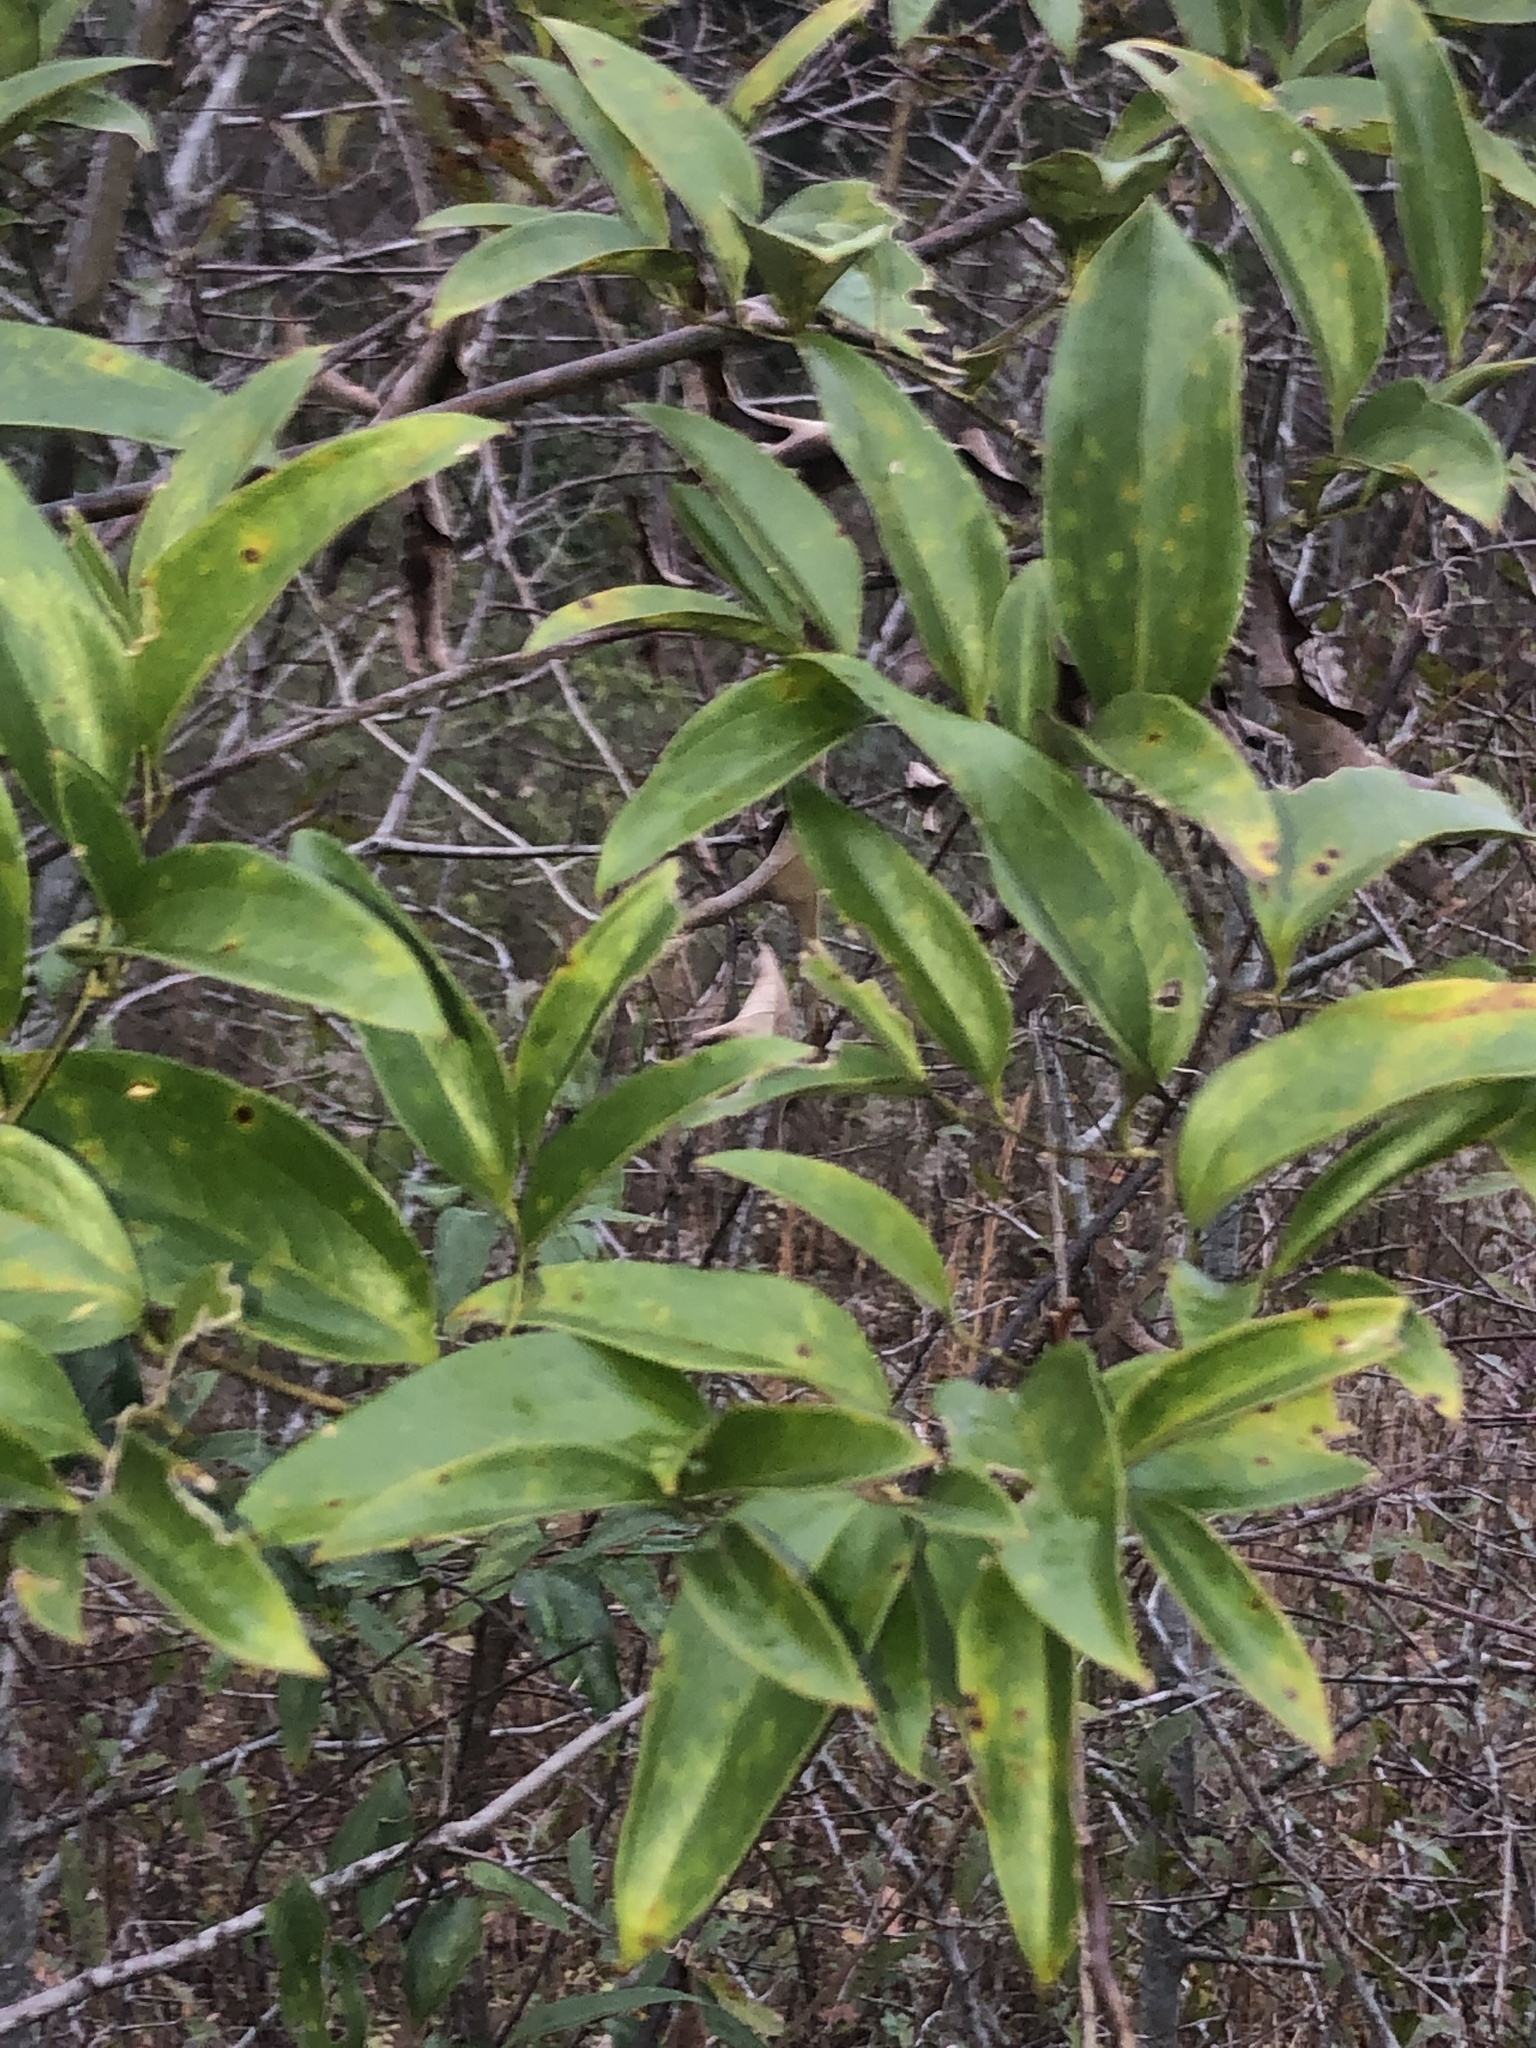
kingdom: Plantae
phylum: Tracheophyta
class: Liliopsida
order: Liliales
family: Smilacaceae
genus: Smilax
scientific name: Smilax maritima
